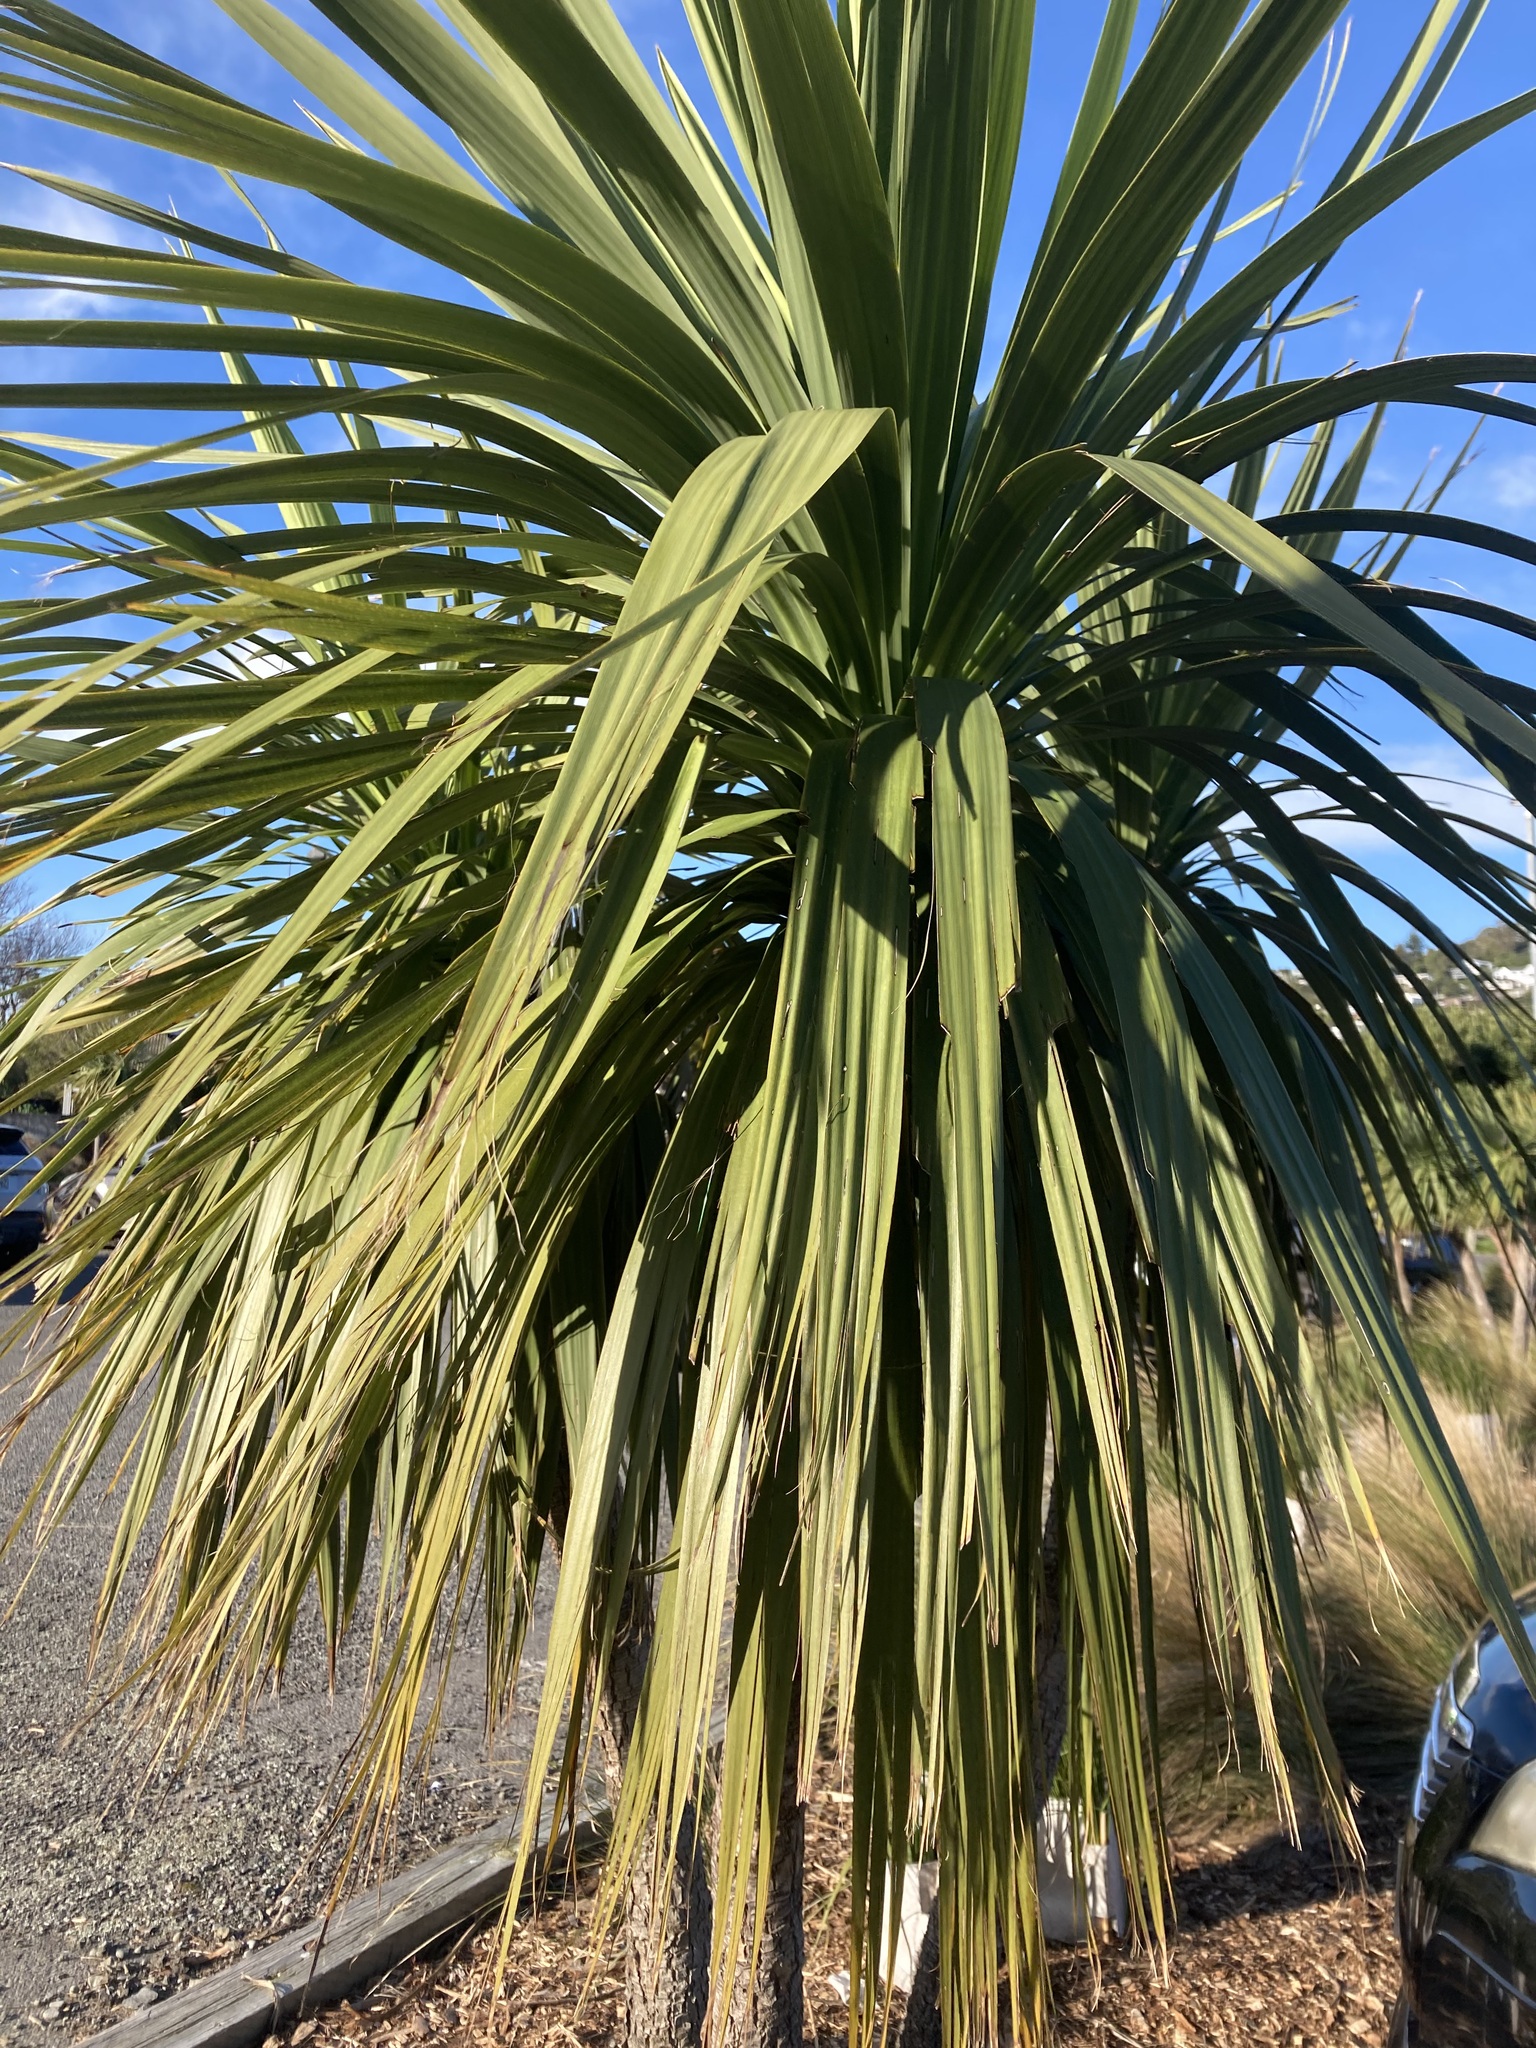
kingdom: Plantae
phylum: Tracheophyta
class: Liliopsida
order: Asparagales
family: Asparagaceae
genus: Cordyline
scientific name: Cordyline australis
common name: Cabbage-palm
